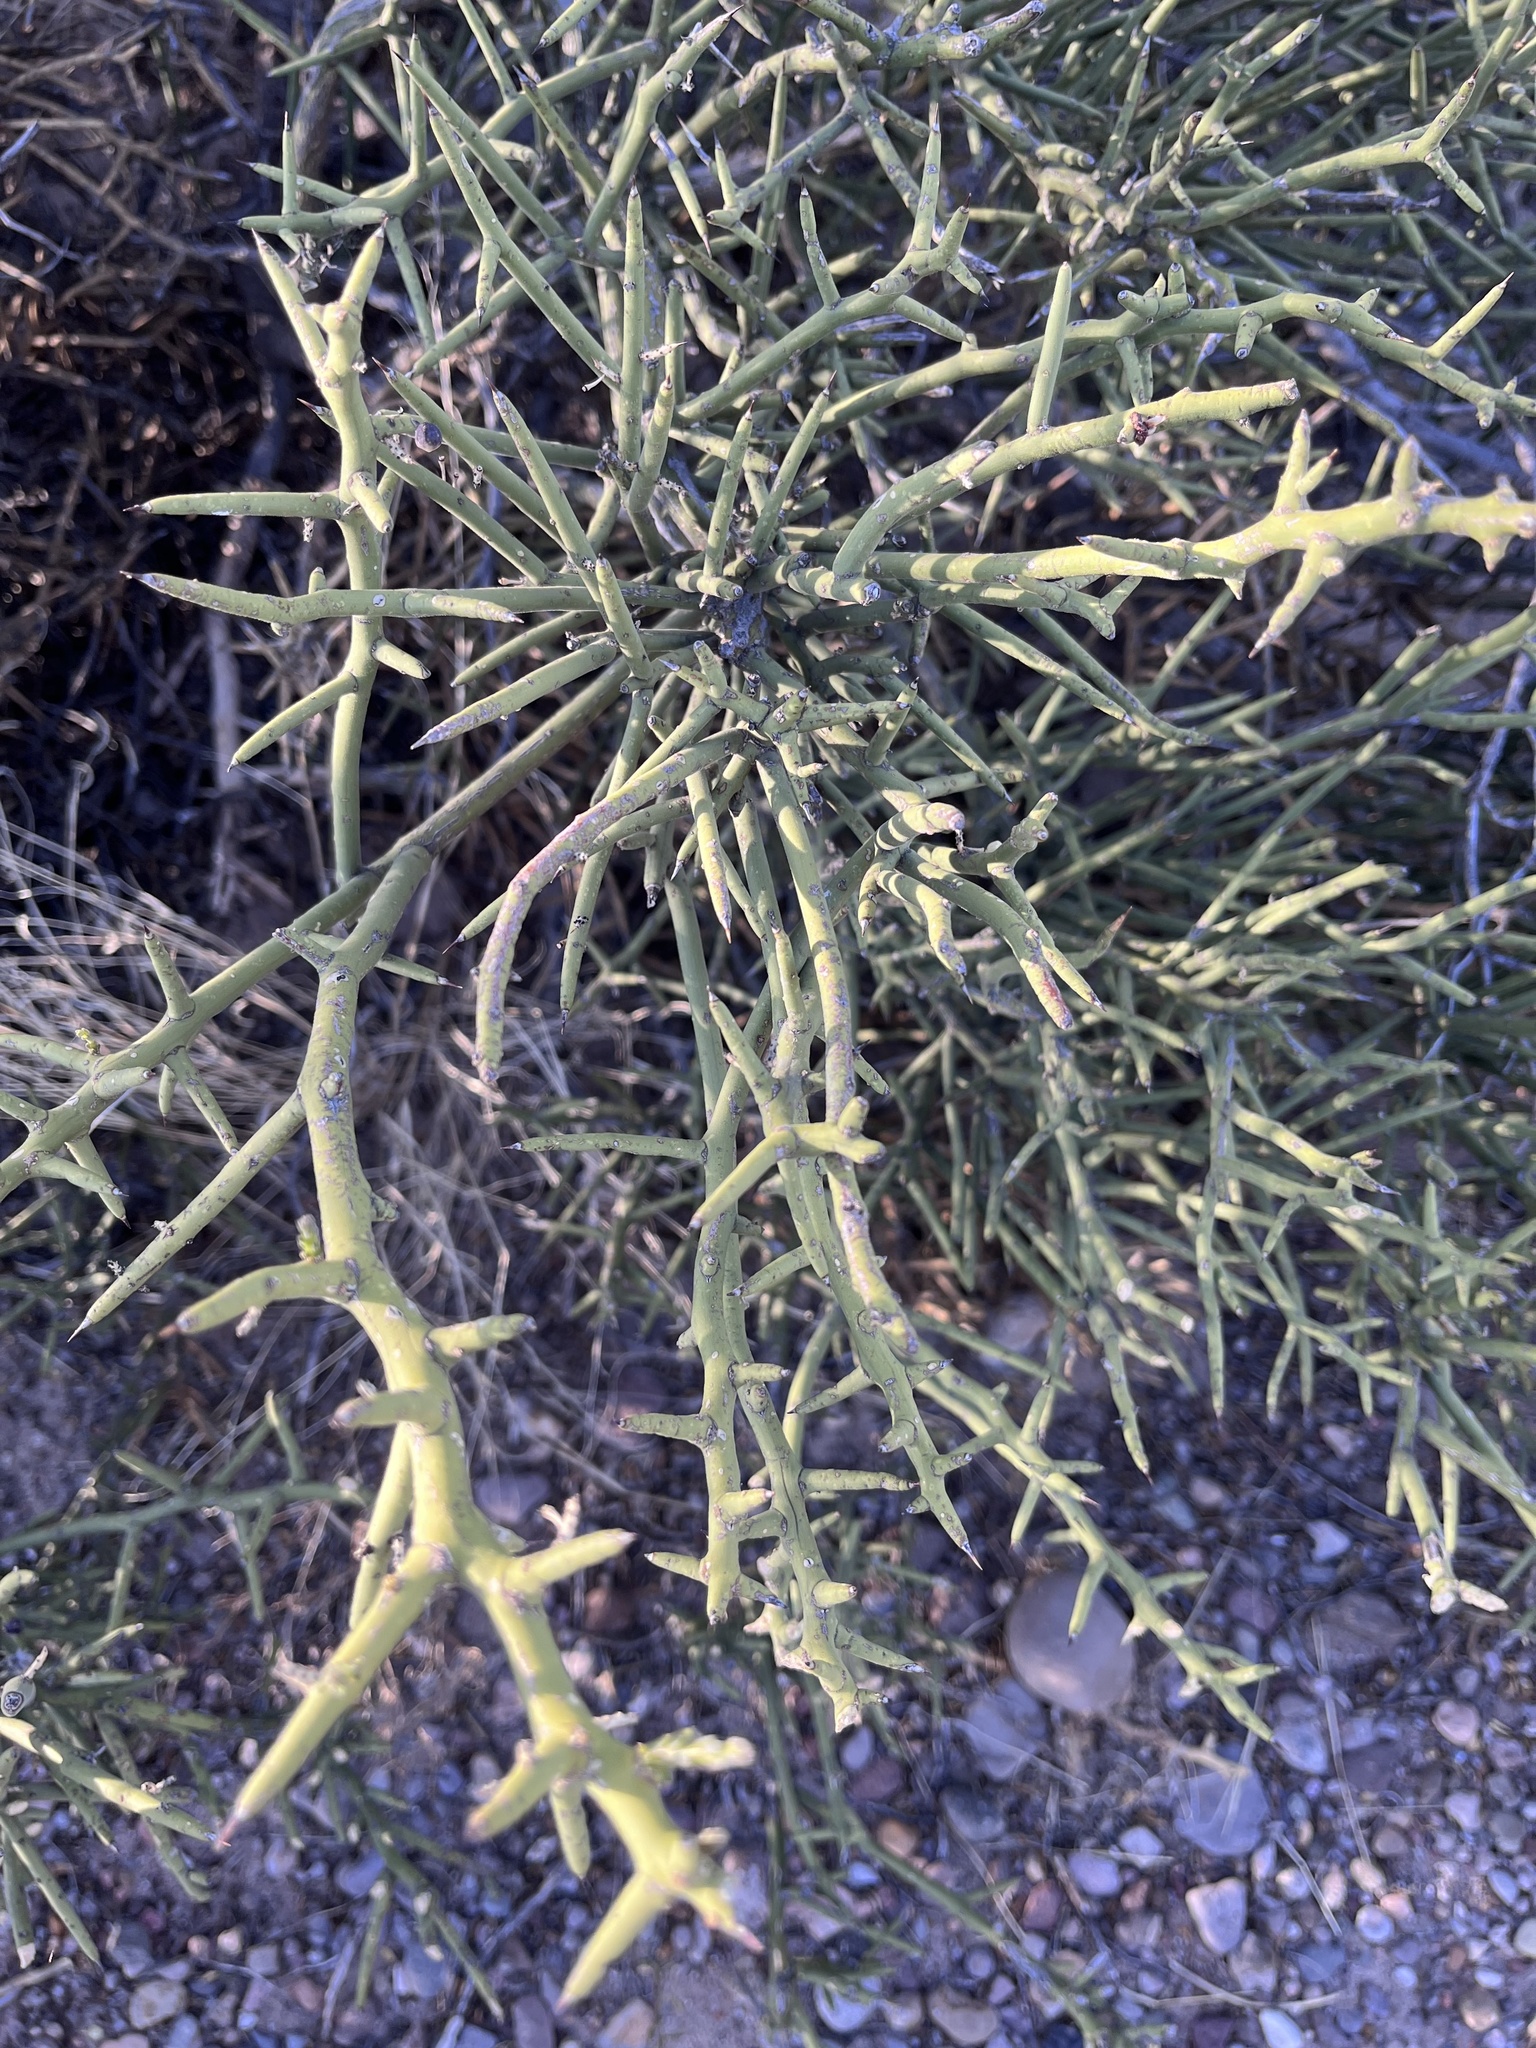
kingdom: Plantae
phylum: Tracheophyta
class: Magnoliopsida
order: Brassicales
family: Koeberliniaceae
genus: Koeberlinia
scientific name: Koeberlinia spinosa
